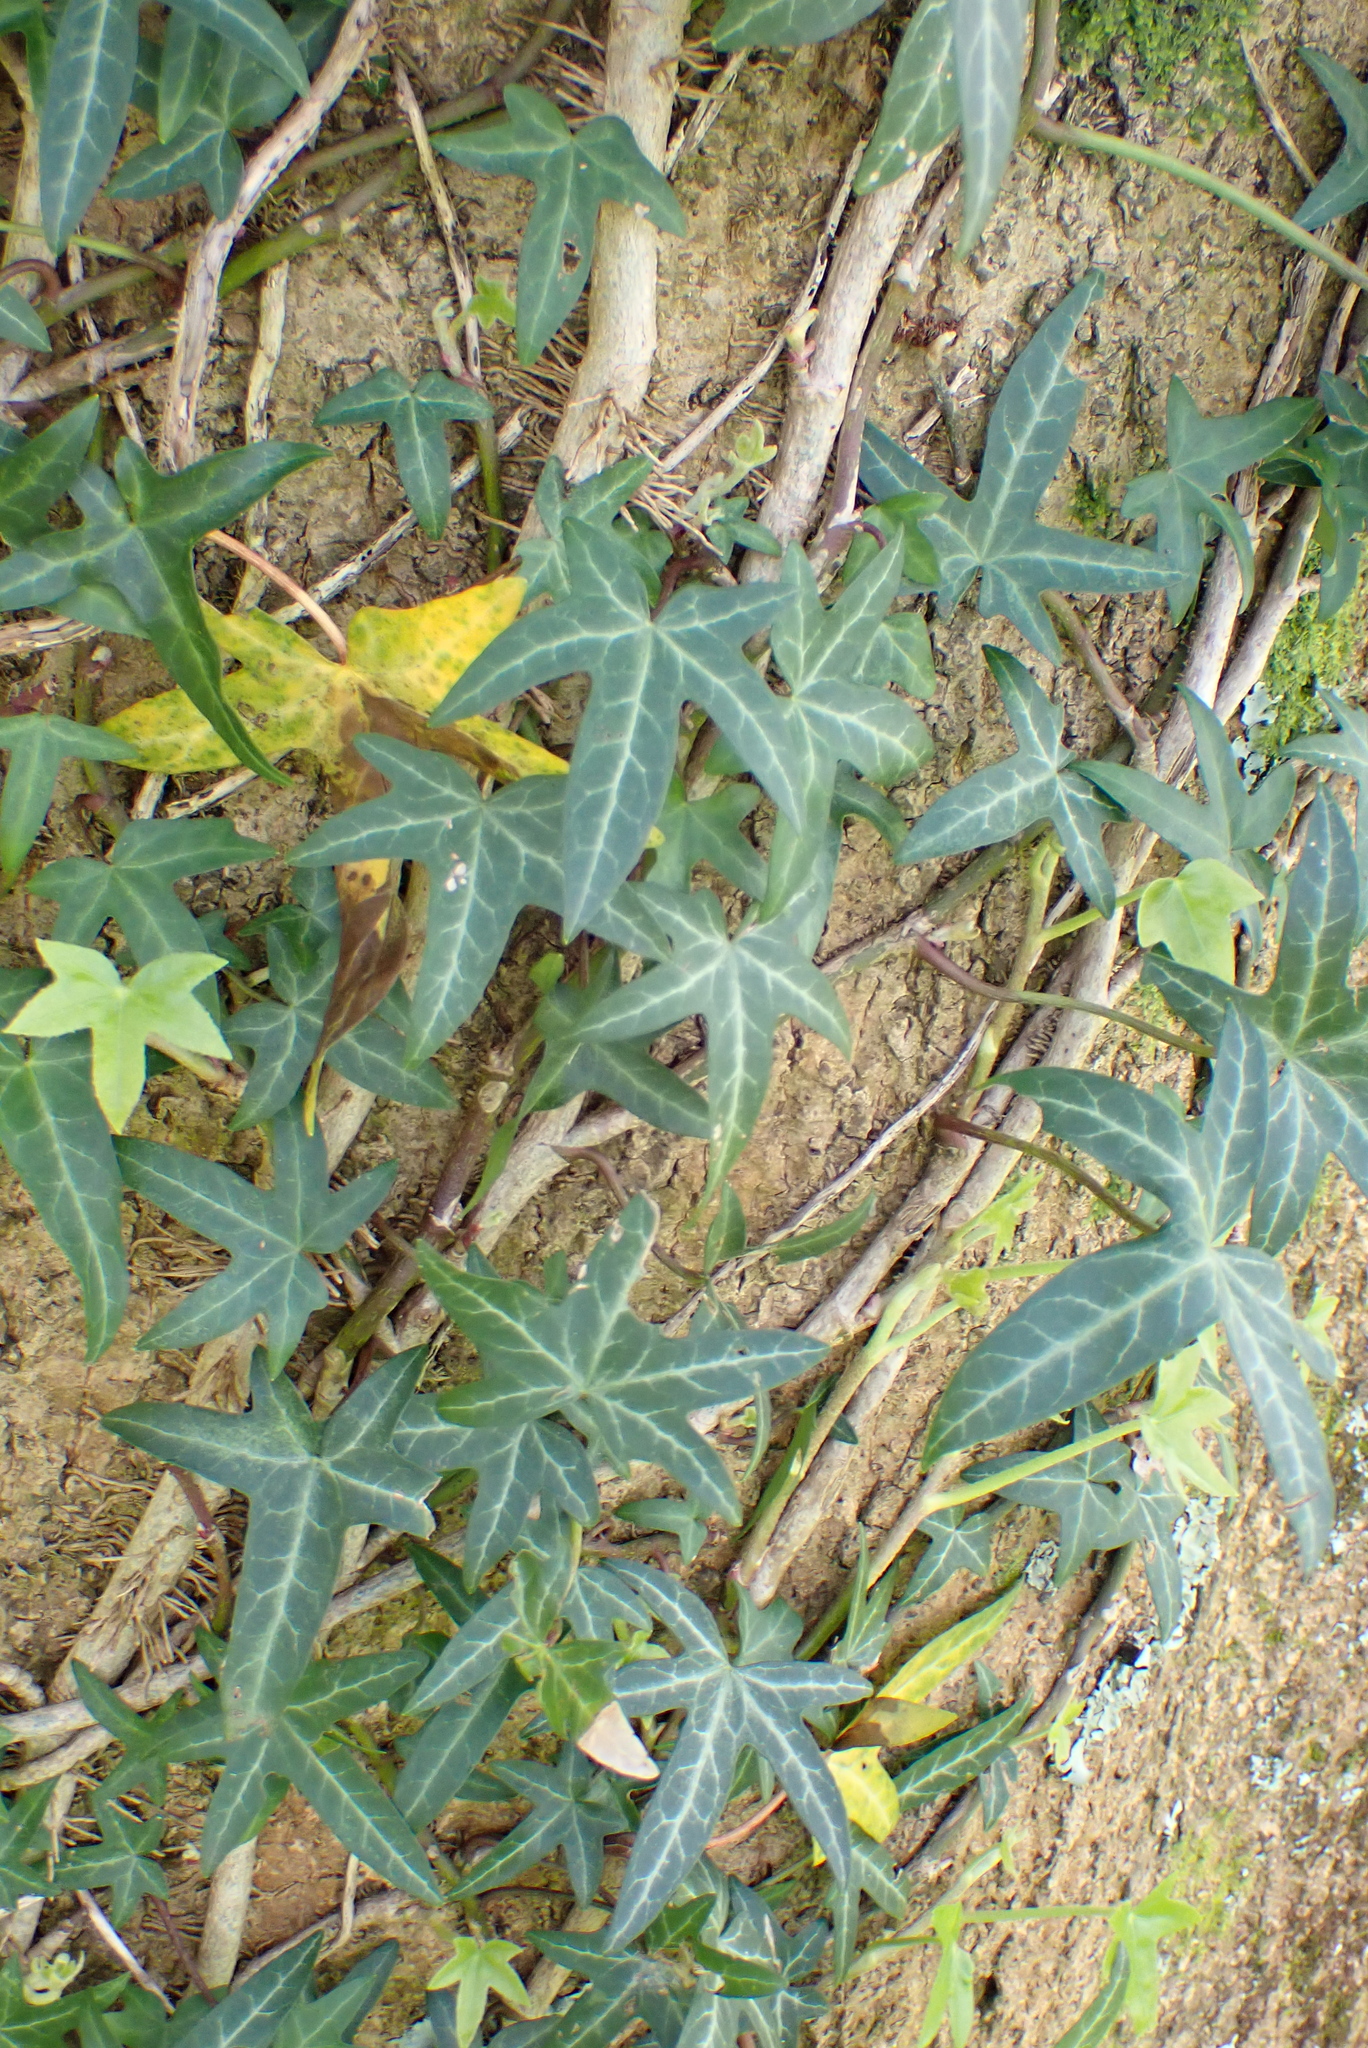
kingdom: Plantae
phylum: Tracheophyta
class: Magnoliopsida
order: Apiales
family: Araliaceae
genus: Hedera
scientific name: Hedera helix
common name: Ivy
